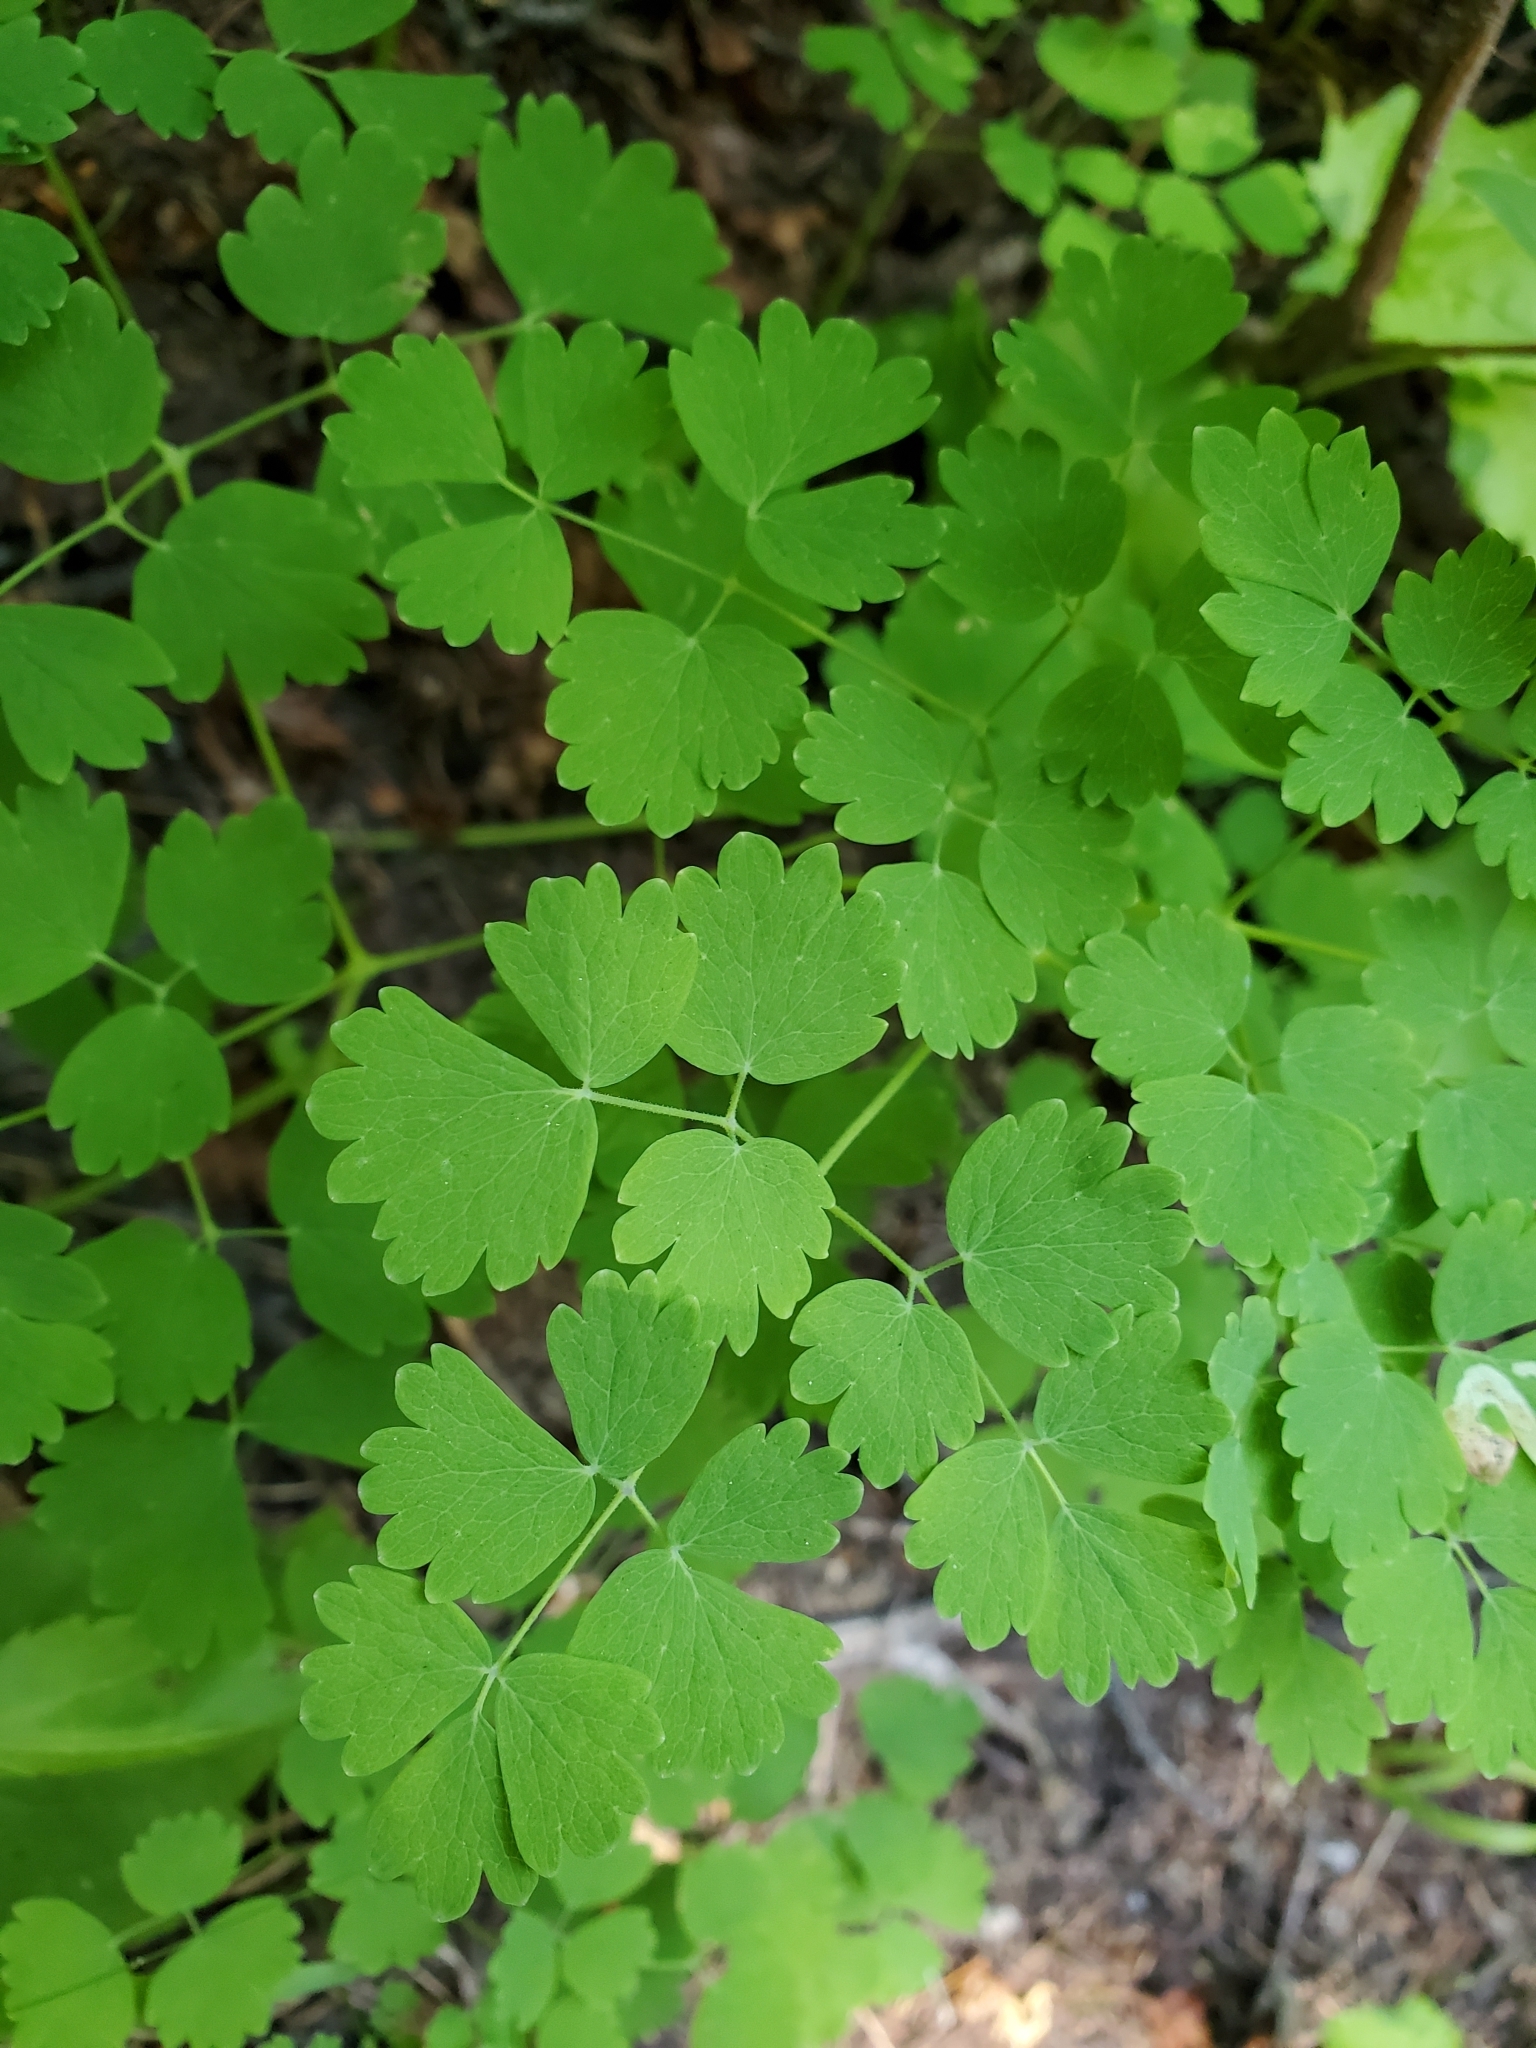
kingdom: Plantae
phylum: Tracheophyta
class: Magnoliopsida
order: Ranunculales
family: Ranunculaceae
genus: Thalictrum
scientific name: Thalictrum occidentale
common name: Western meadow-rue
